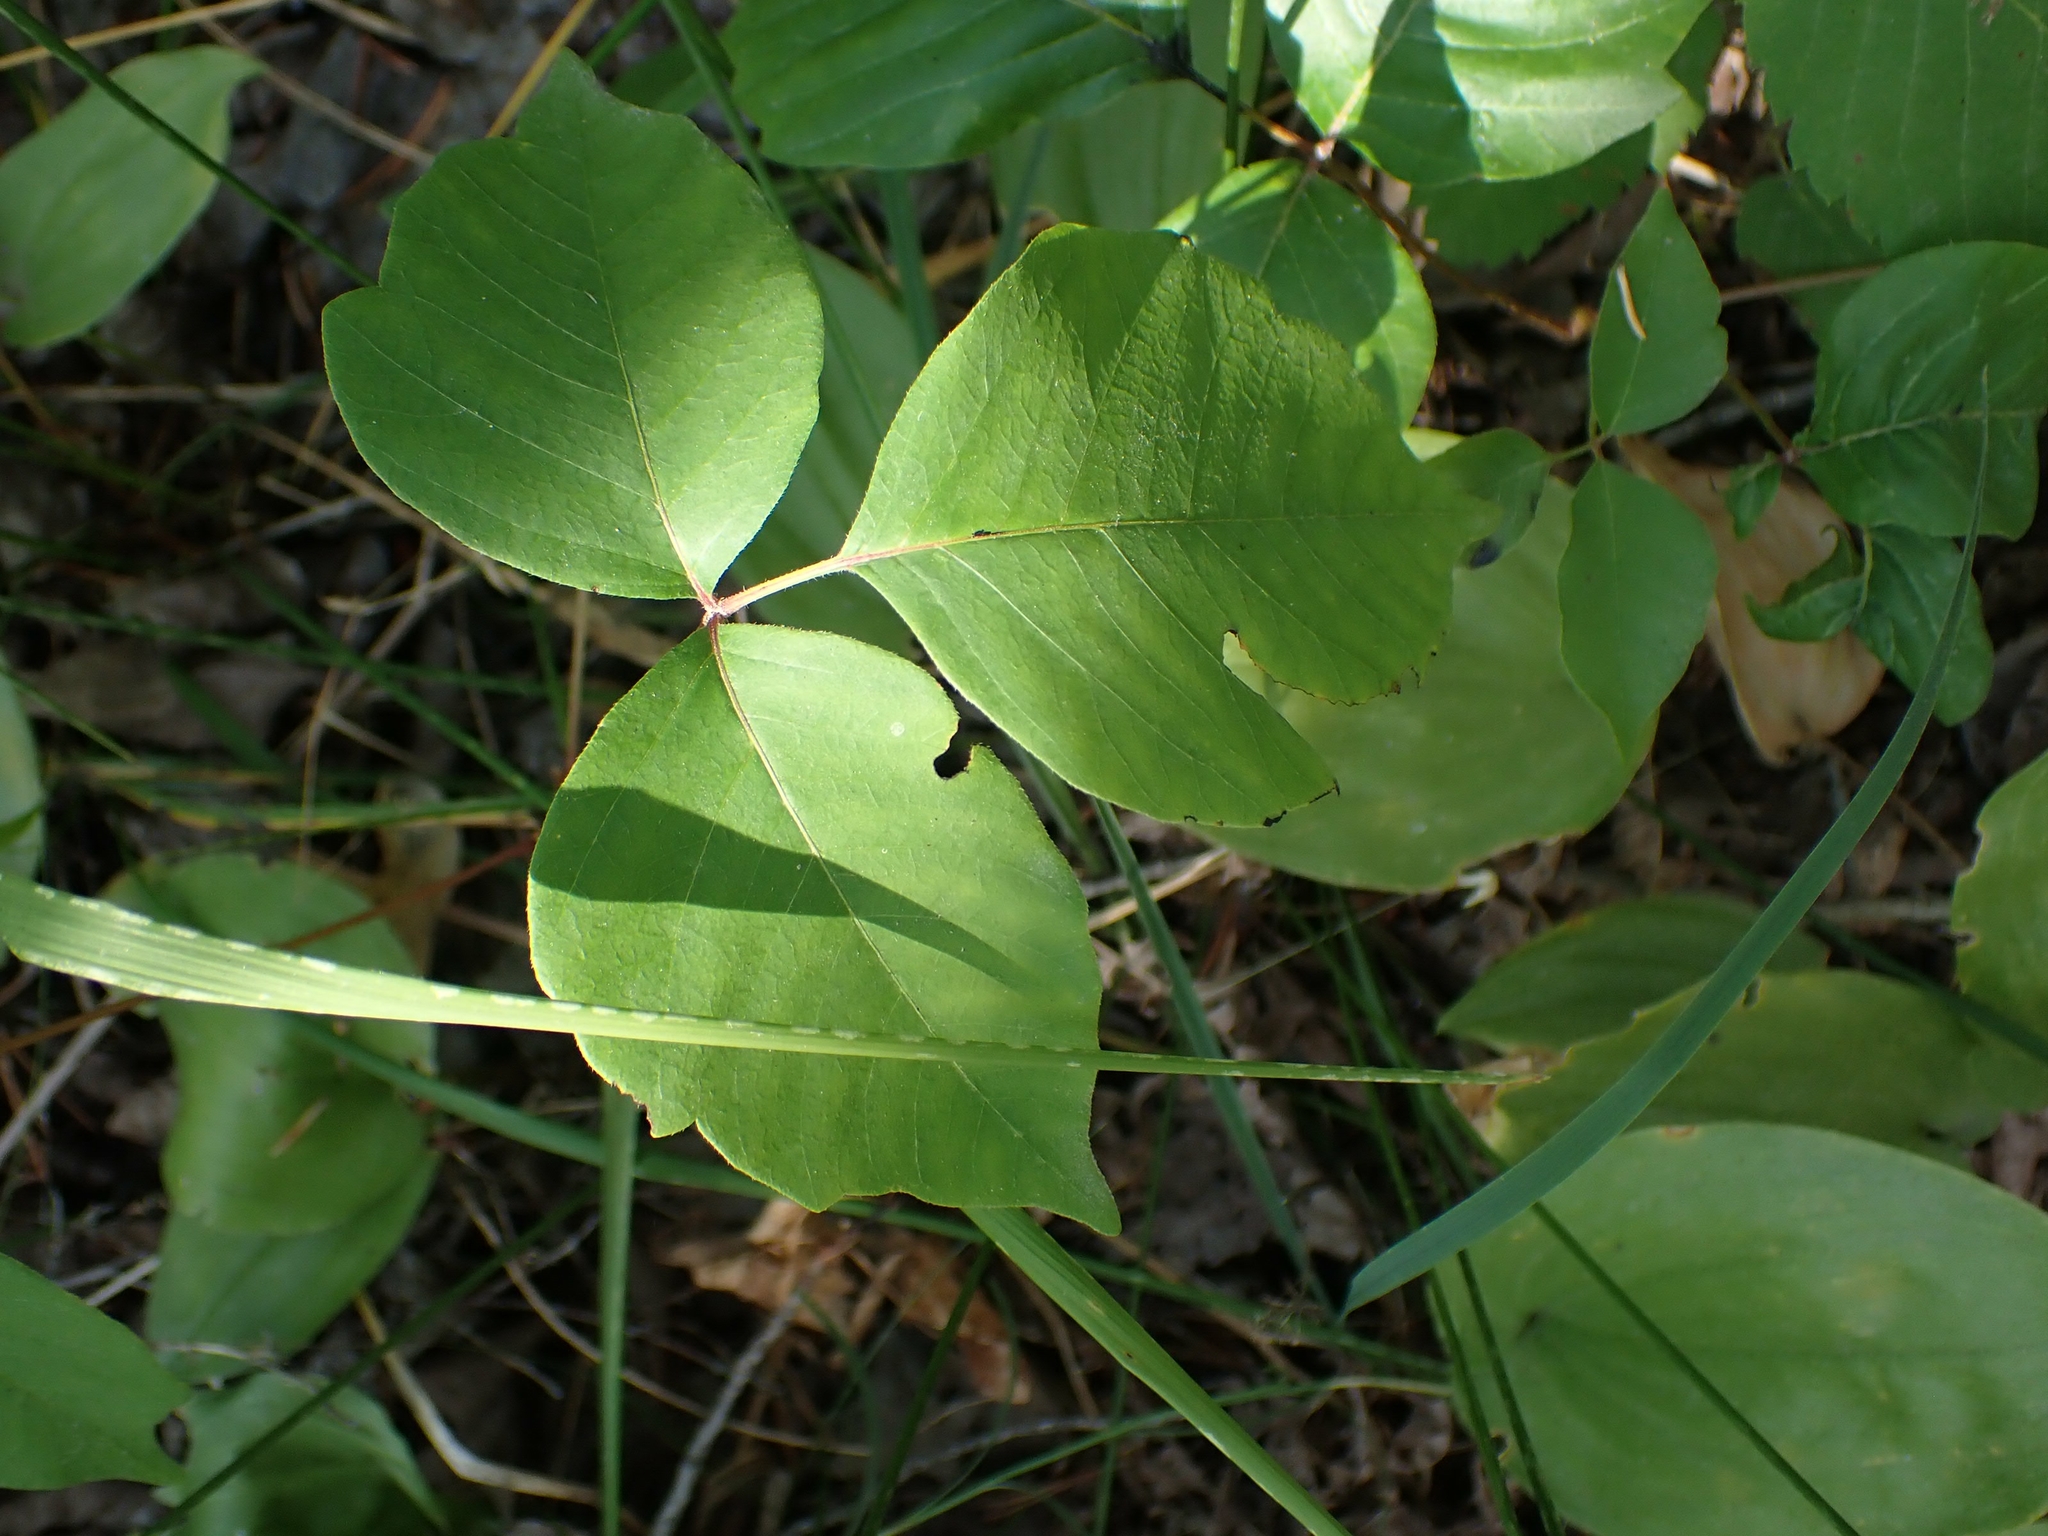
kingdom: Plantae
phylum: Tracheophyta
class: Magnoliopsida
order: Sapindales
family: Anacardiaceae
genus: Toxicodendron
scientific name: Toxicodendron rydbergii
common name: Rydberg's poison-ivy
